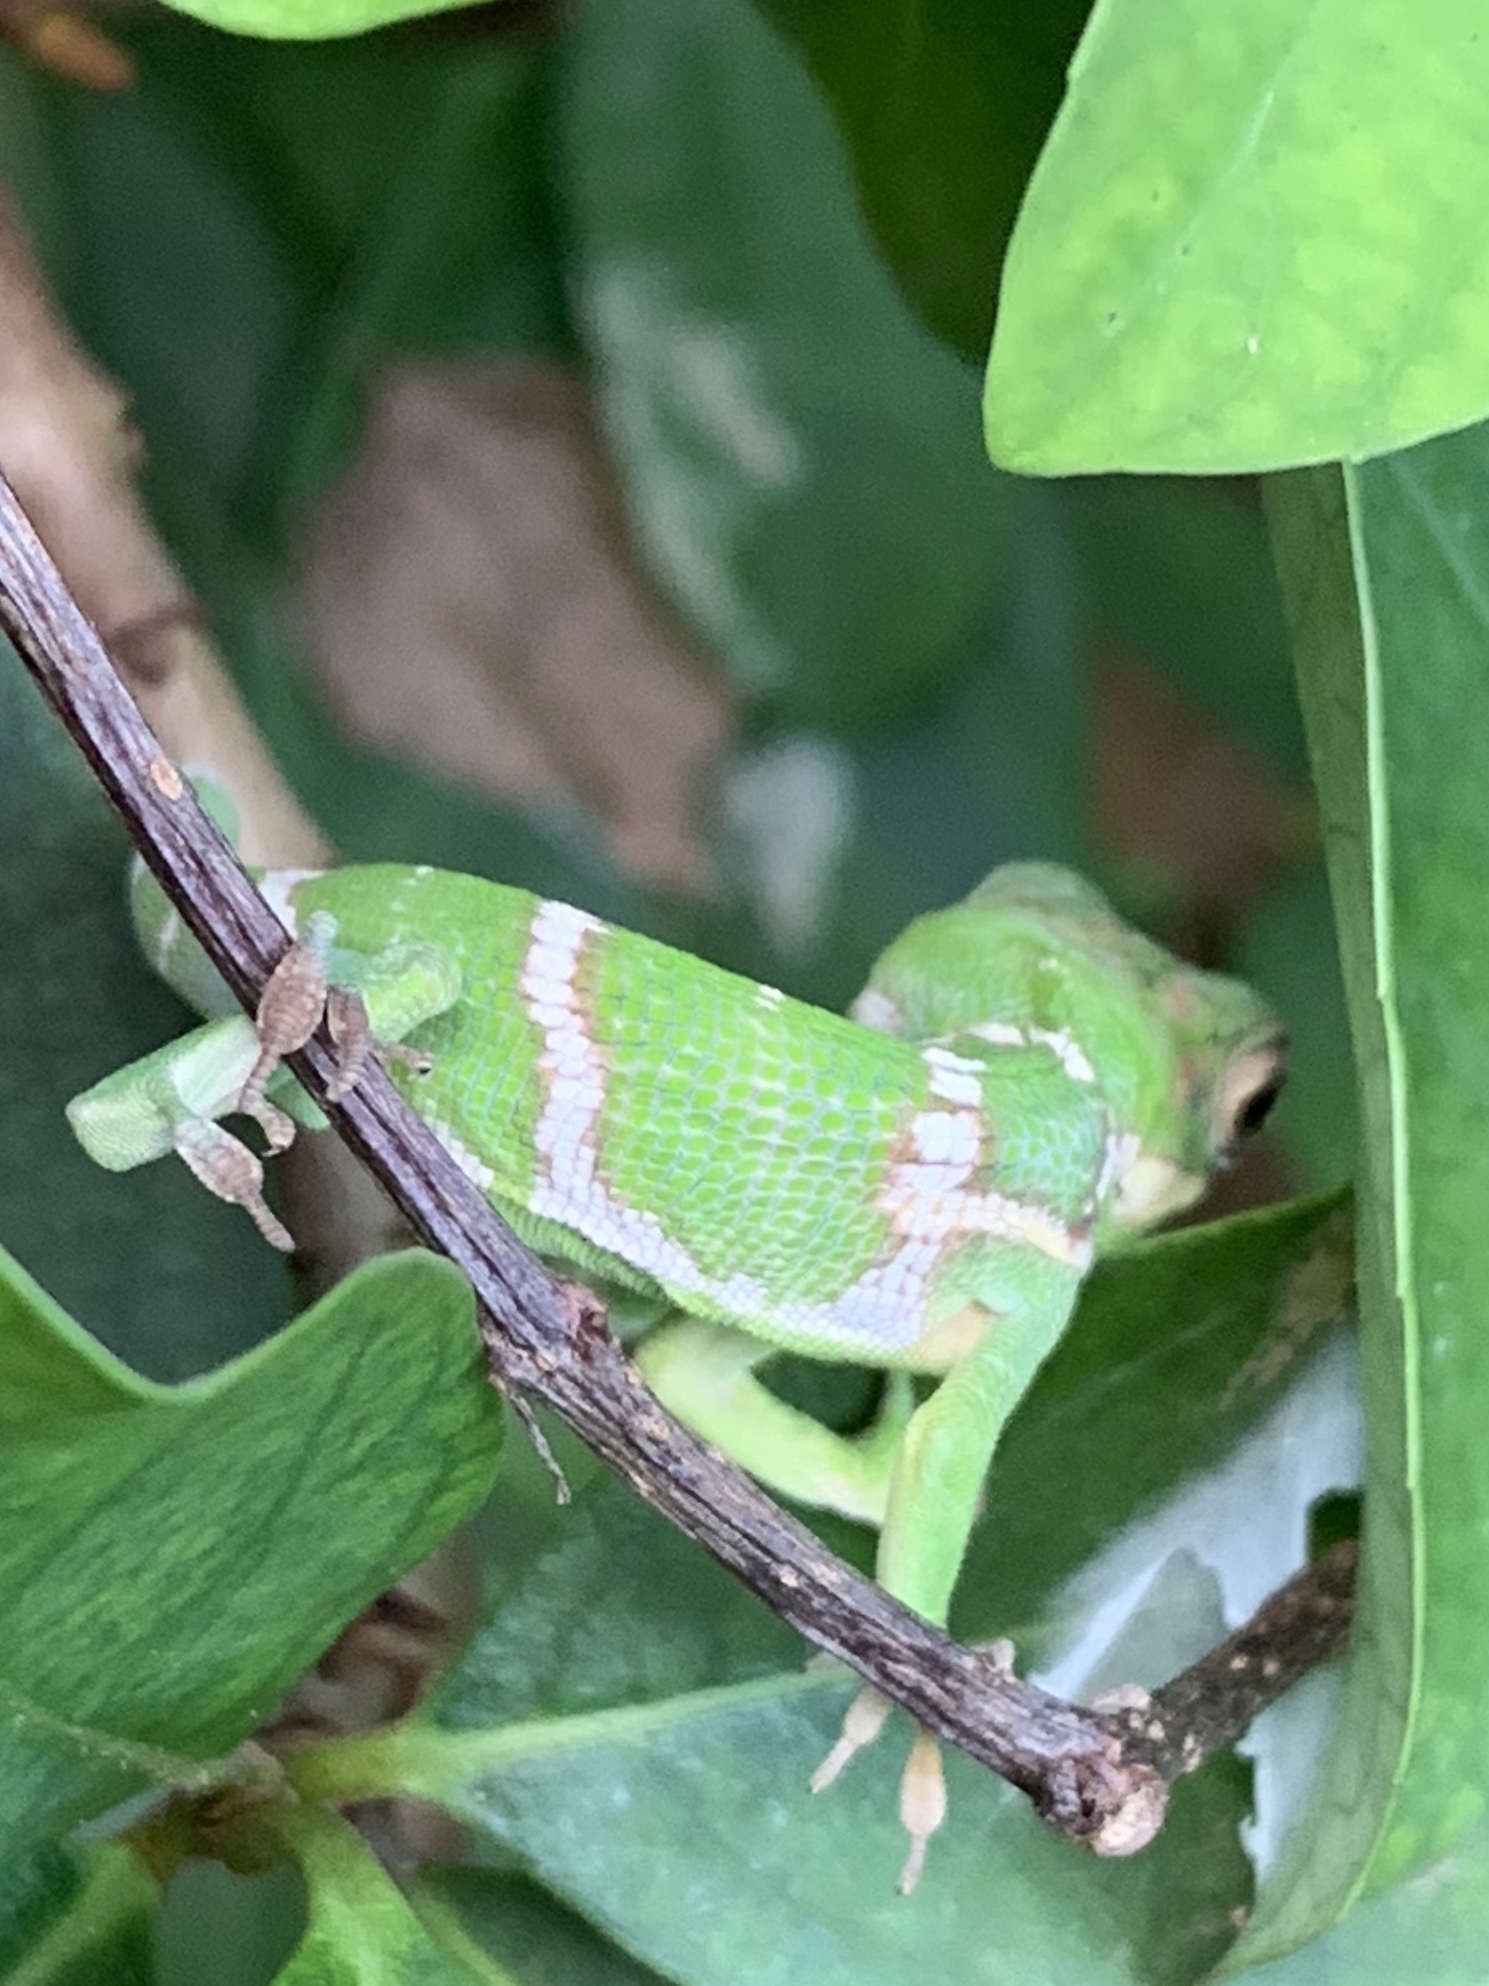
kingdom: Animalia
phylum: Chordata
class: Squamata
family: Dactyloidae
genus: Anolis
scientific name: Anolis equestris
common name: Knight anole
